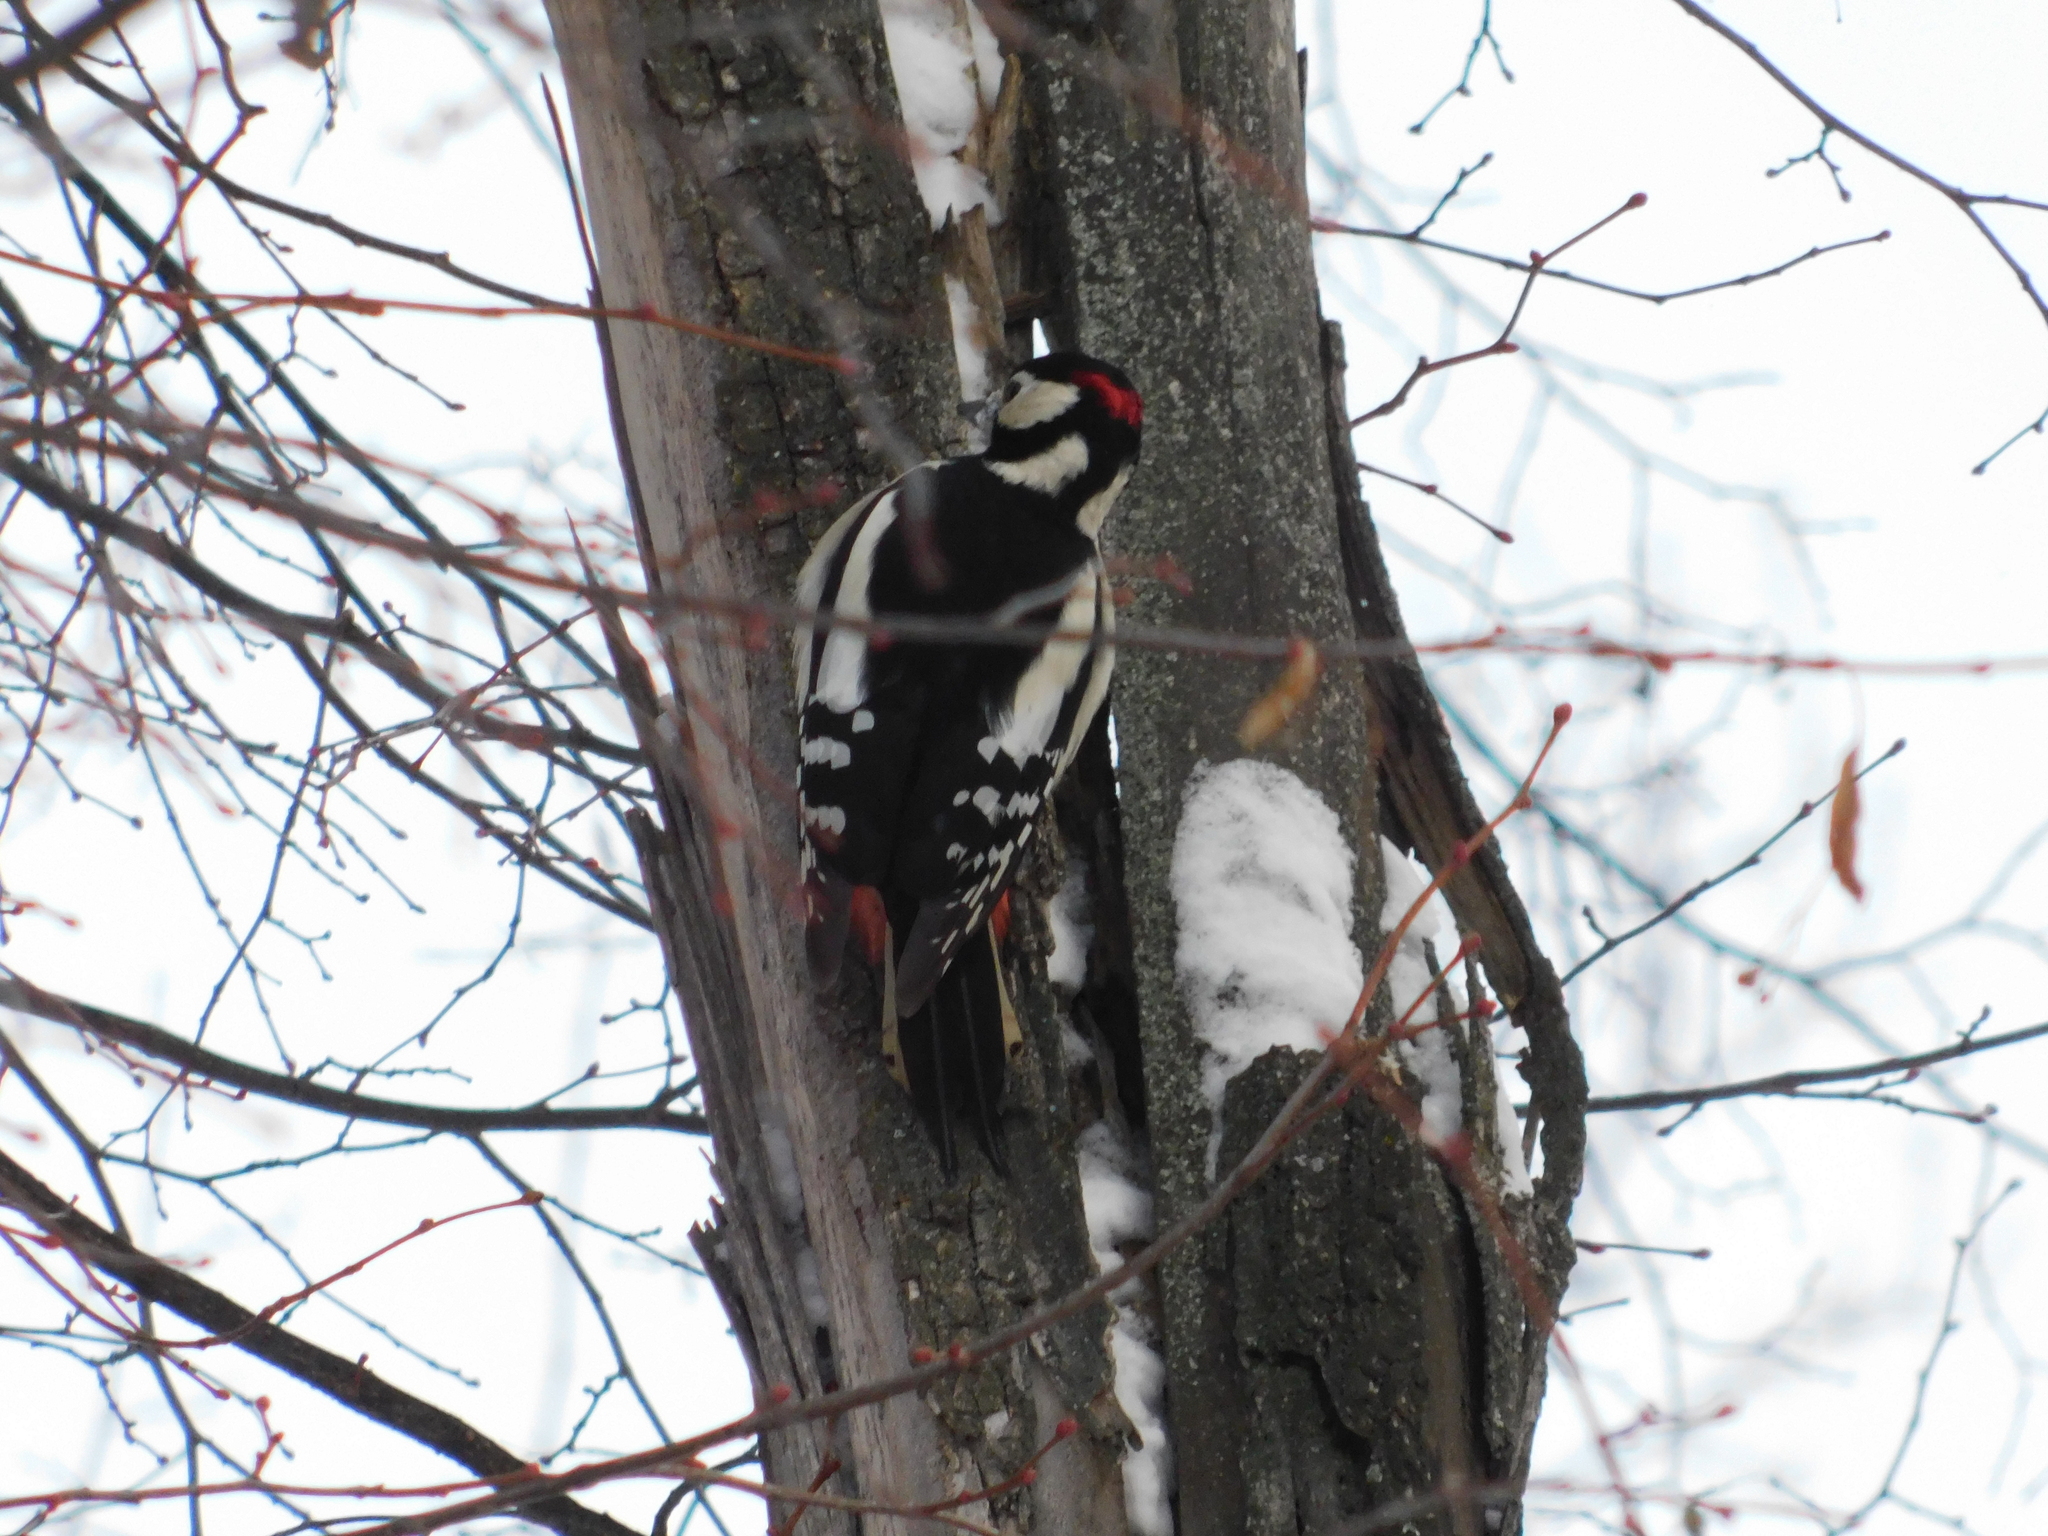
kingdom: Animalia
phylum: Chordata
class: Aves
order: Piciformes
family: Picidae
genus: Dendrocopos
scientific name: Dendrocopos major
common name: Great spotted woodpecker
